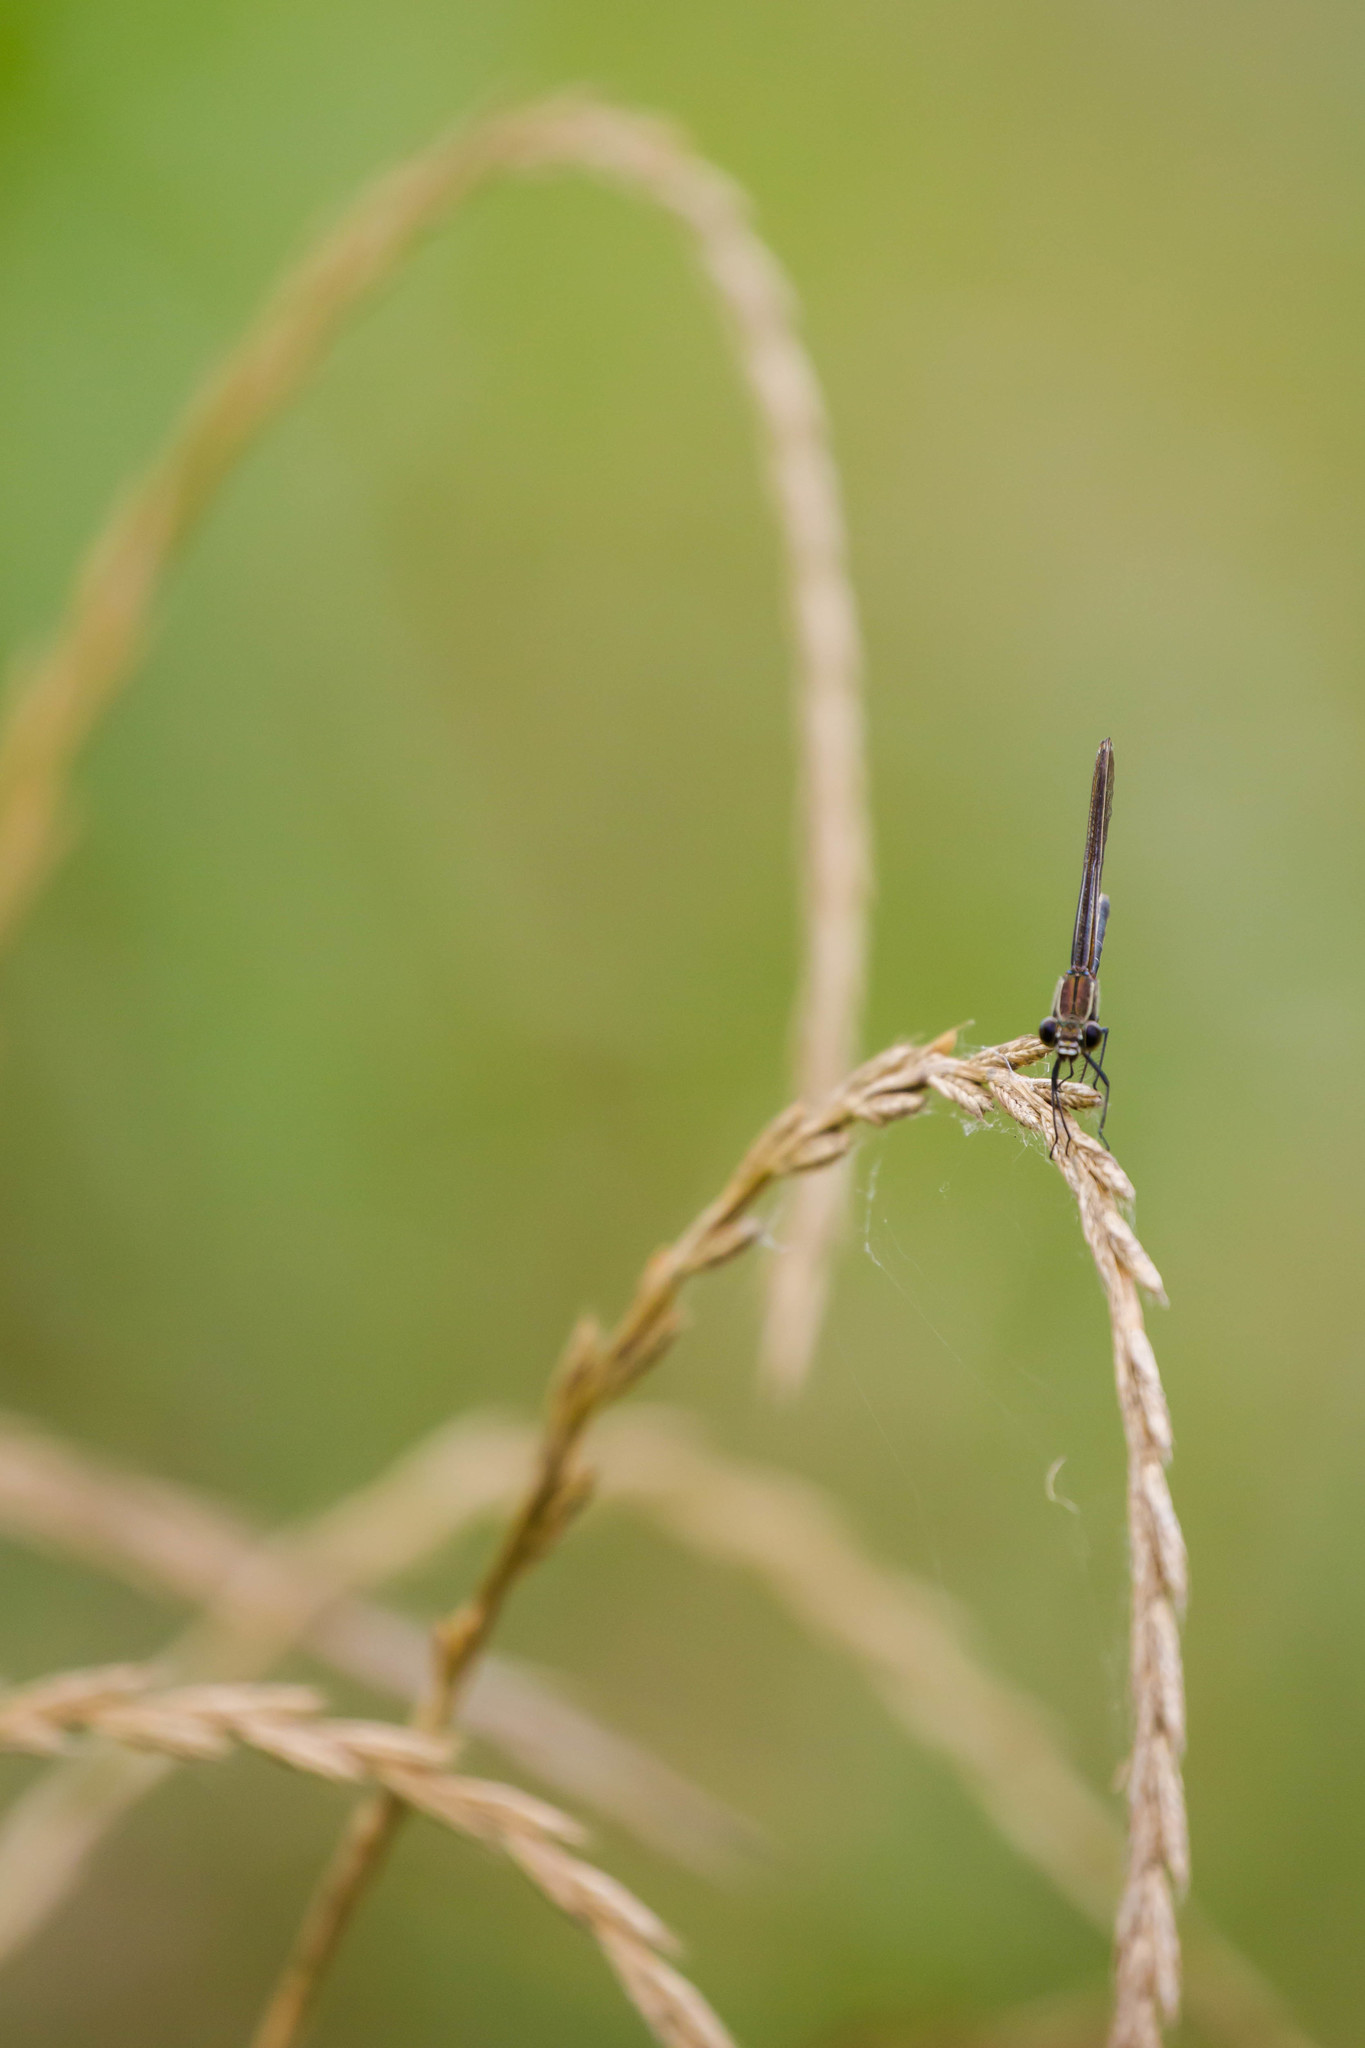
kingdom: Animalia
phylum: Arthropoda
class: Insecta
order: Odonata
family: Calopterygidae
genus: Hetaerina
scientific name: Hetaerina americana
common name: American rubyspot
